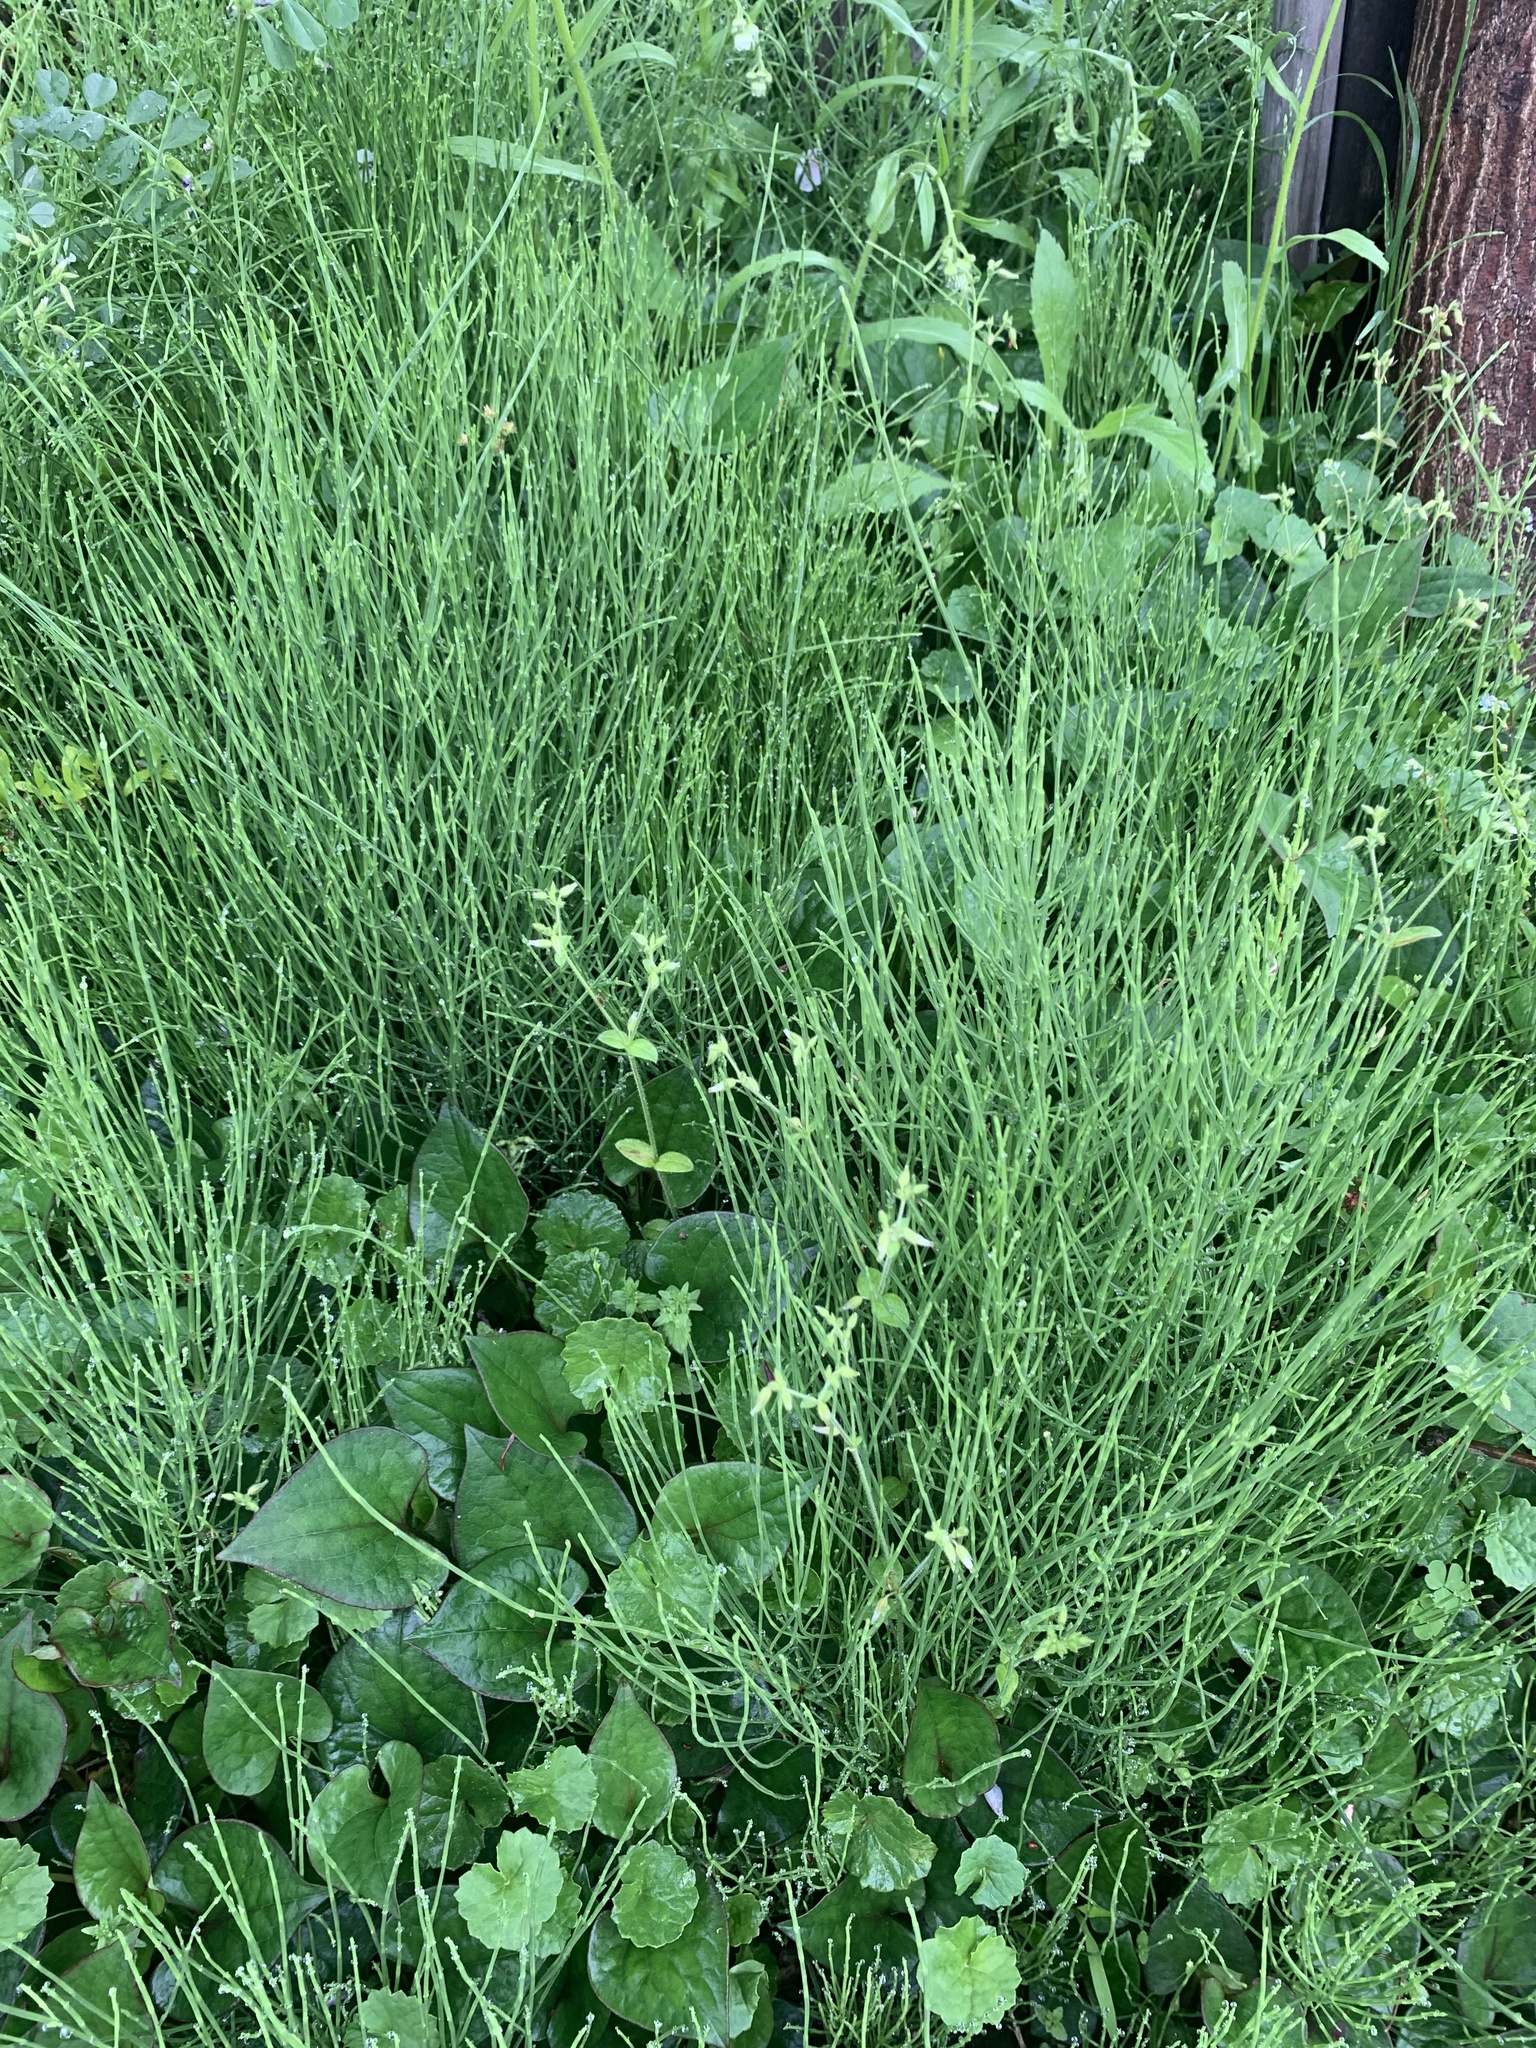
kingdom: Plantae
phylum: Tracheophyta
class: Polypodiopsida
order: Equisetales
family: Equisetaceae
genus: Equisetum
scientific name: Equisetum arvense
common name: Field horsetail
